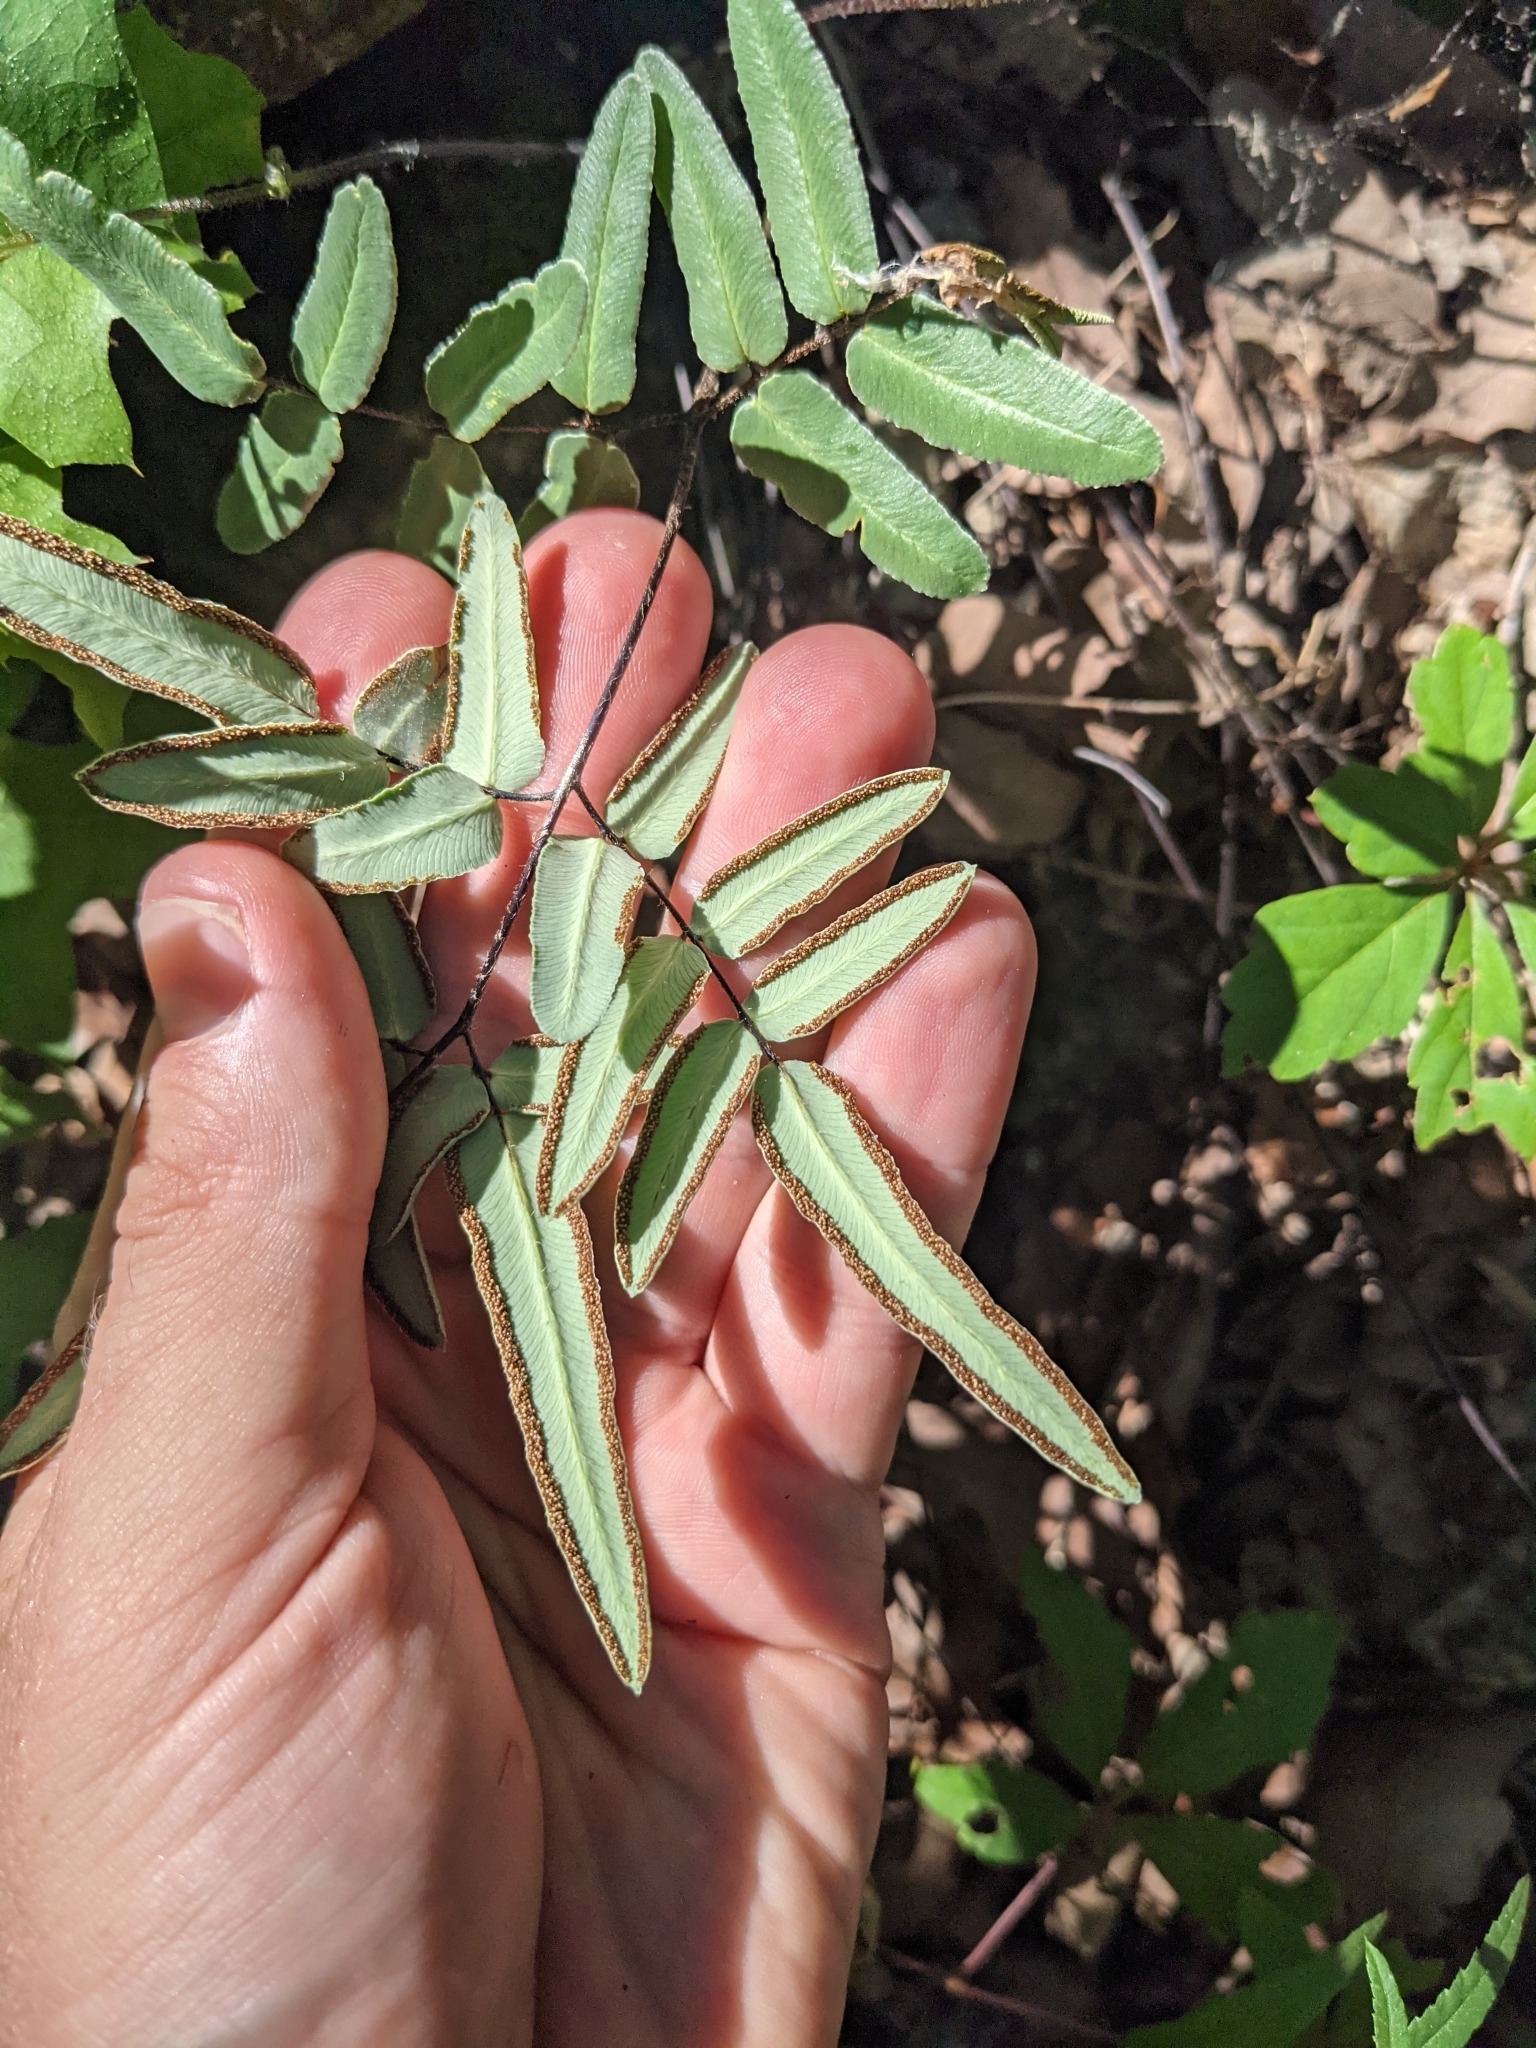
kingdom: Plantae
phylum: Tracheophyta
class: Polypodiopsida
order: Polypodiales
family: Pteridaceae
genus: Pellaea
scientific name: Pellaea atropurpurea
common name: Hairy cliffbrake
